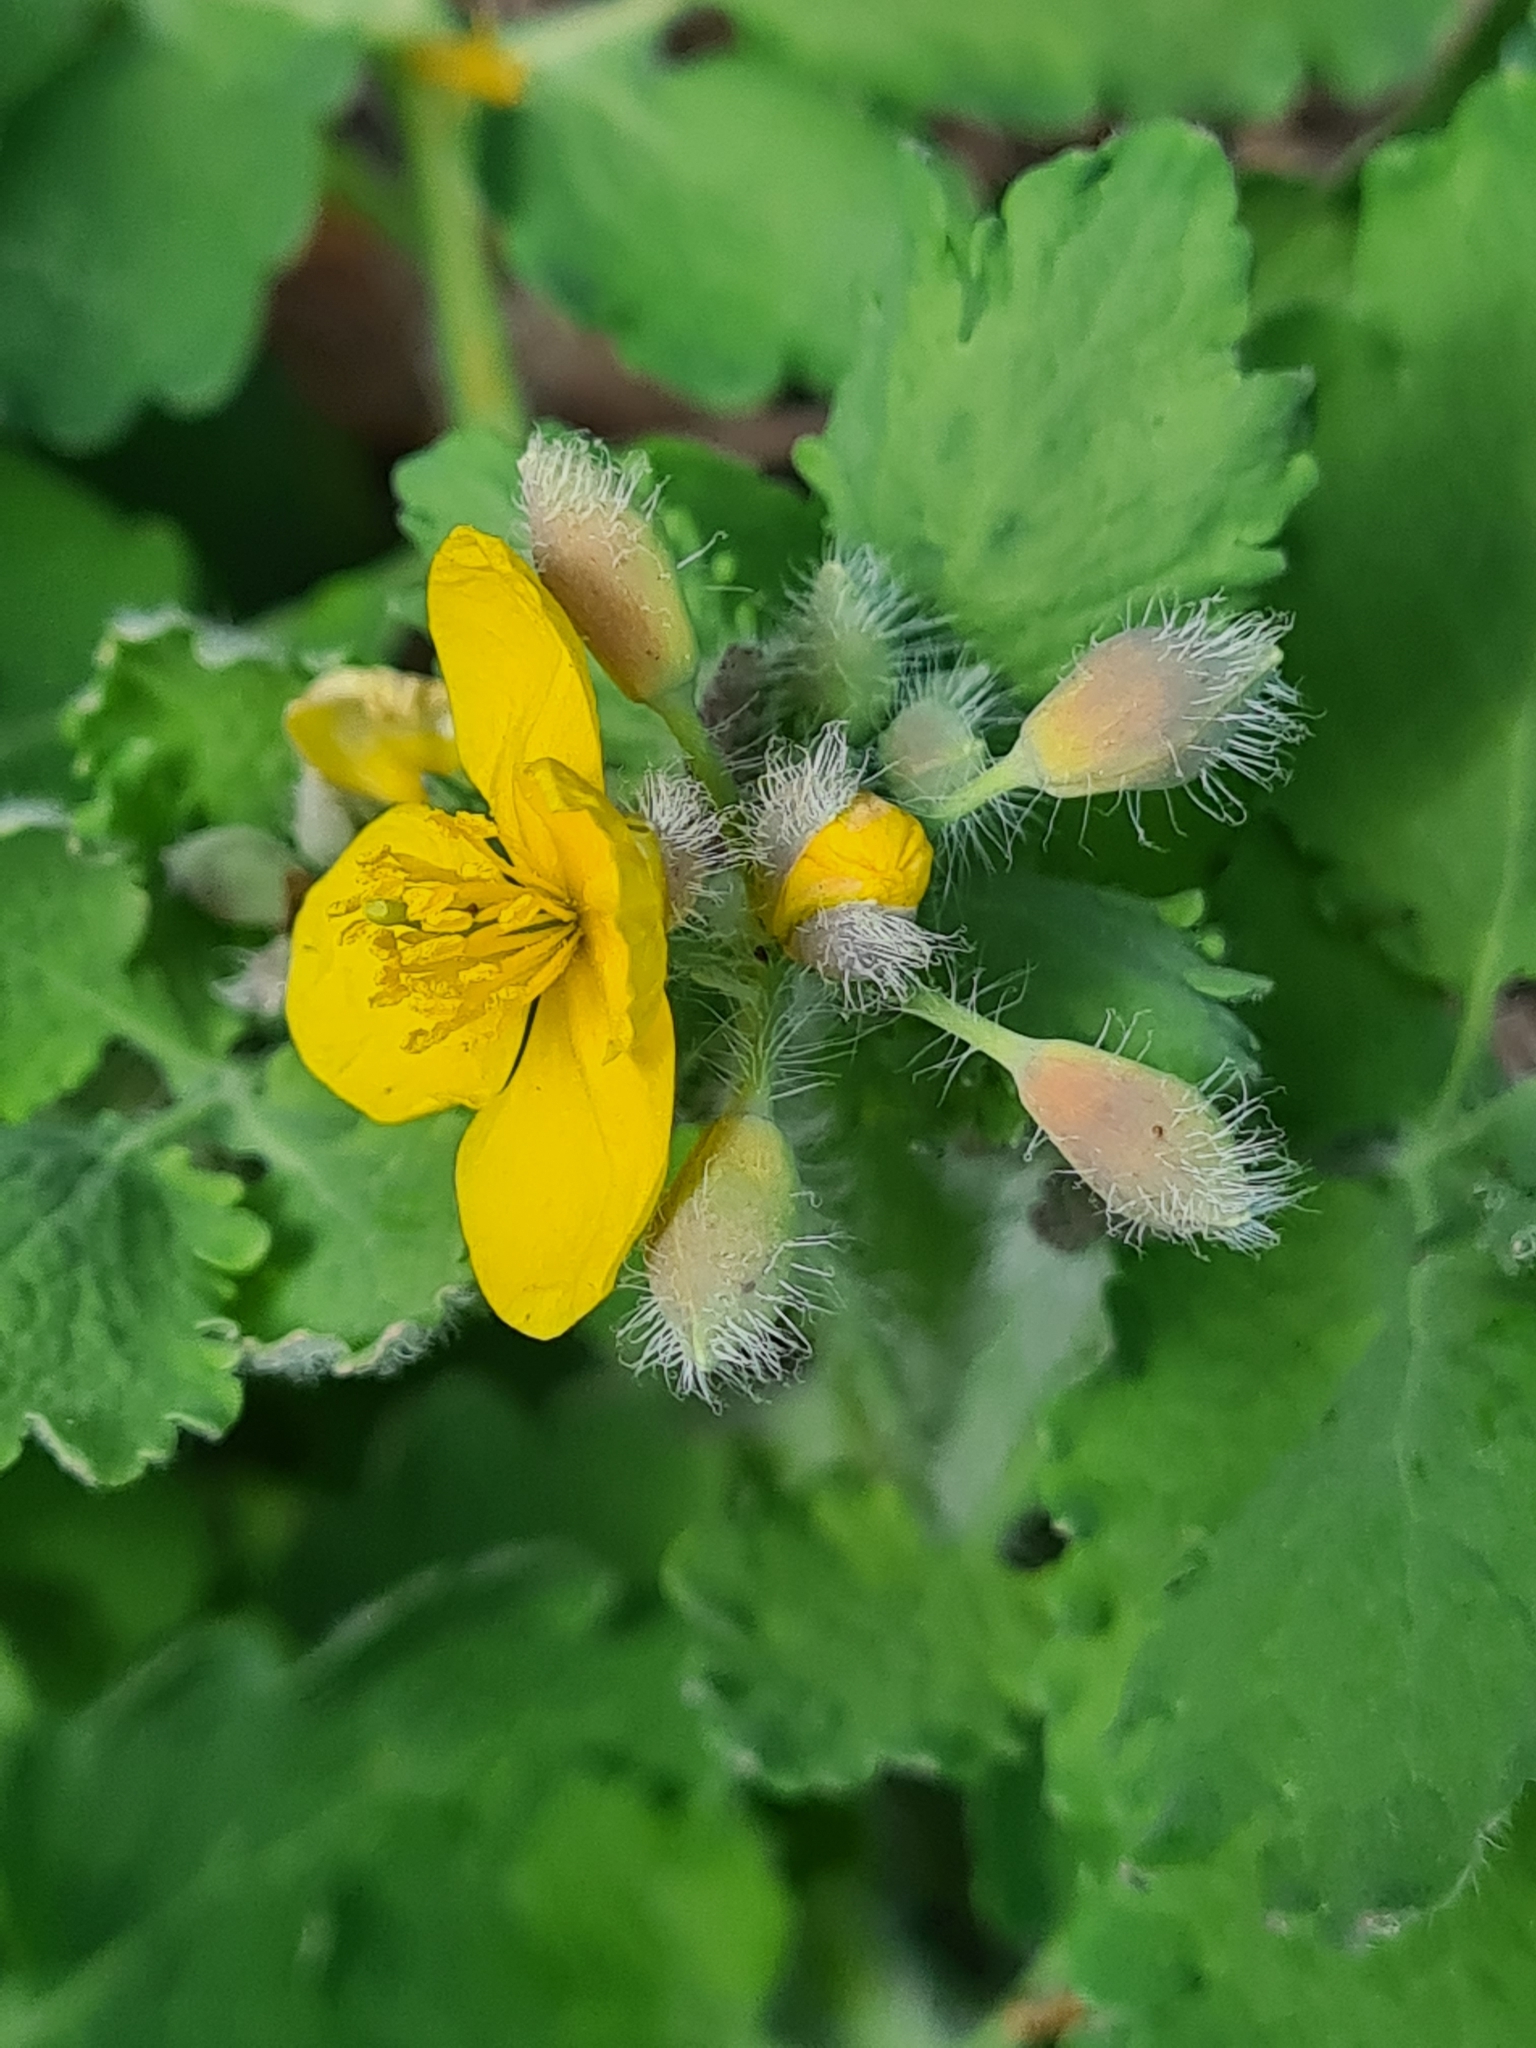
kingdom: Plantae
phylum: Tracheophyta
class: Magnoliopsida
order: Ranunculales
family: Papaveraceae
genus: Chelidonium
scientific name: Chelidonium majus
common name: Greater celandine
